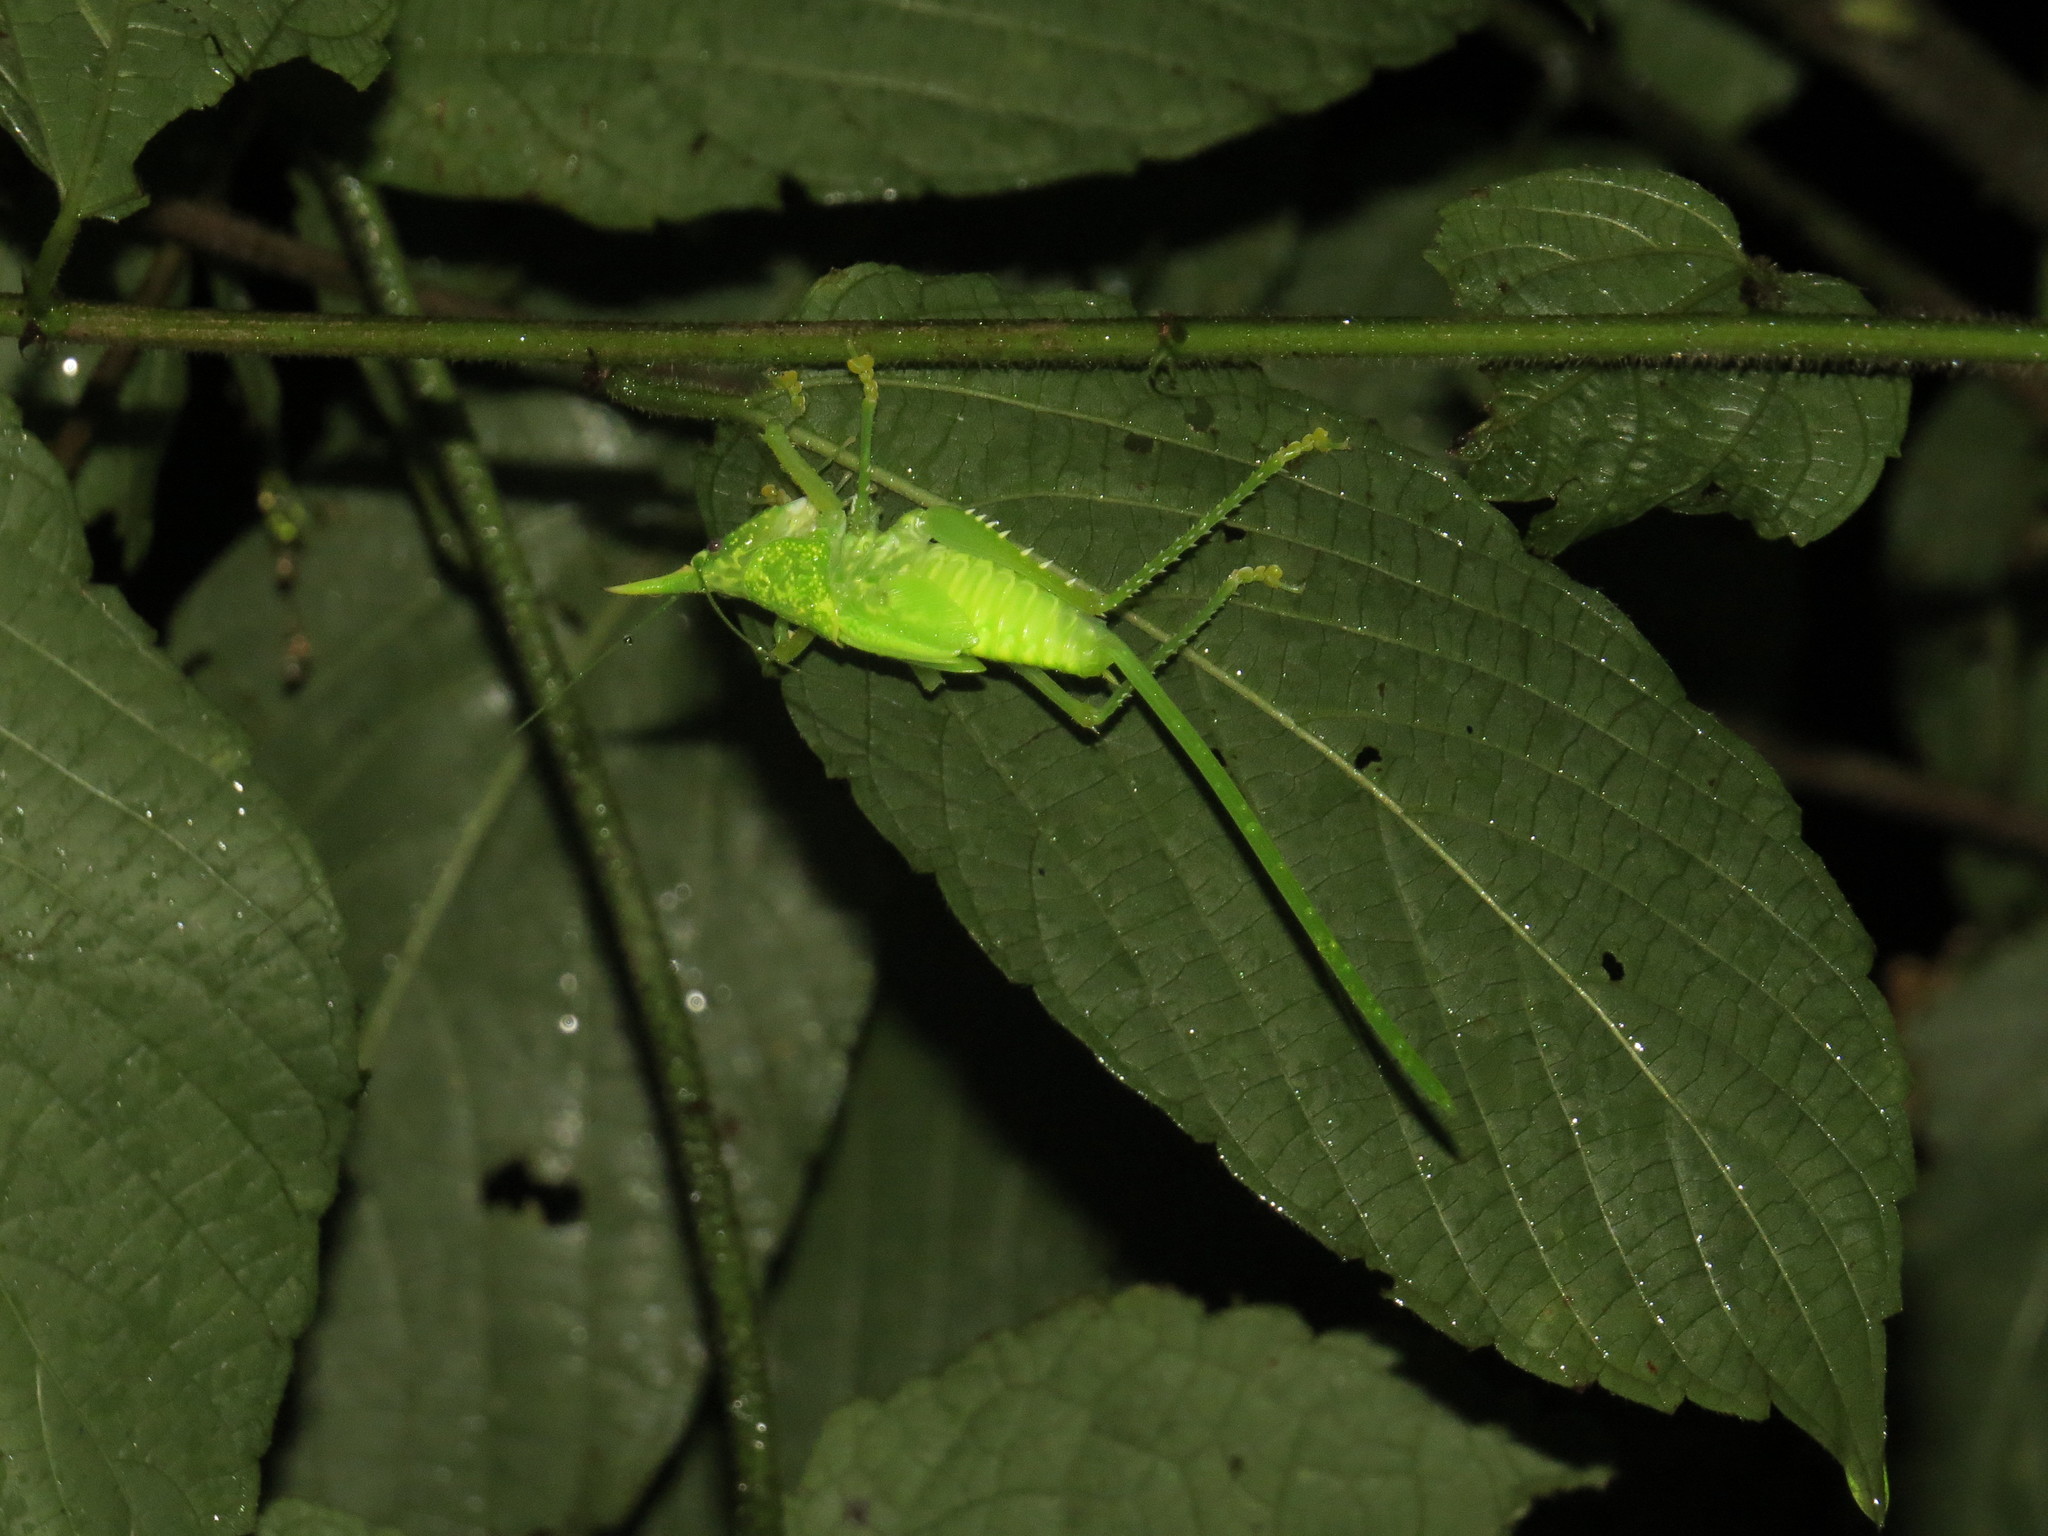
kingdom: Animalia
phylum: Arthropoda
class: Insecta
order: Orthoptera
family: Tettigoniidae
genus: Copiphora
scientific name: Copiphora rhinoceros
